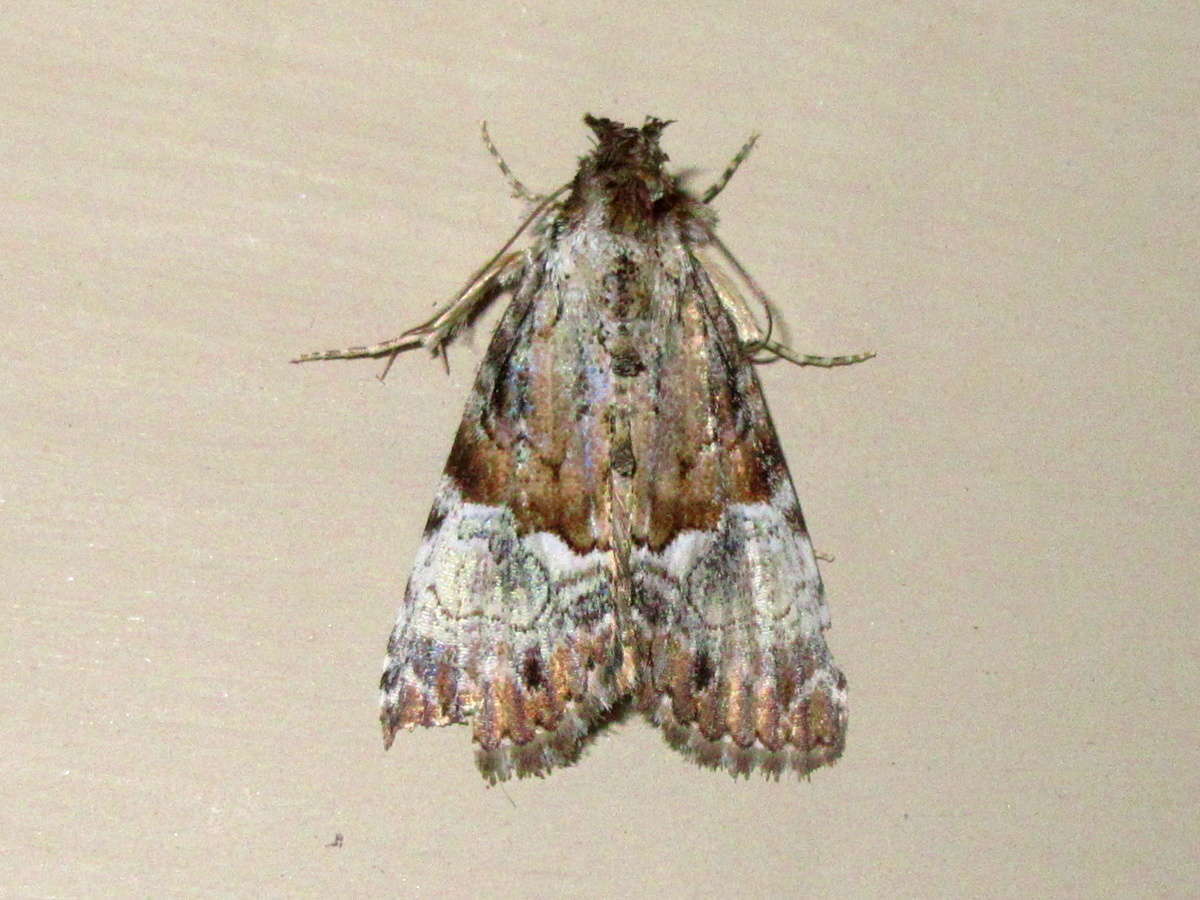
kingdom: Animalia
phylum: Arthropoda
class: Insecta
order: Lepidoptera
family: Erebidae
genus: Alophosoma
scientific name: Alophosoma emmelopis
